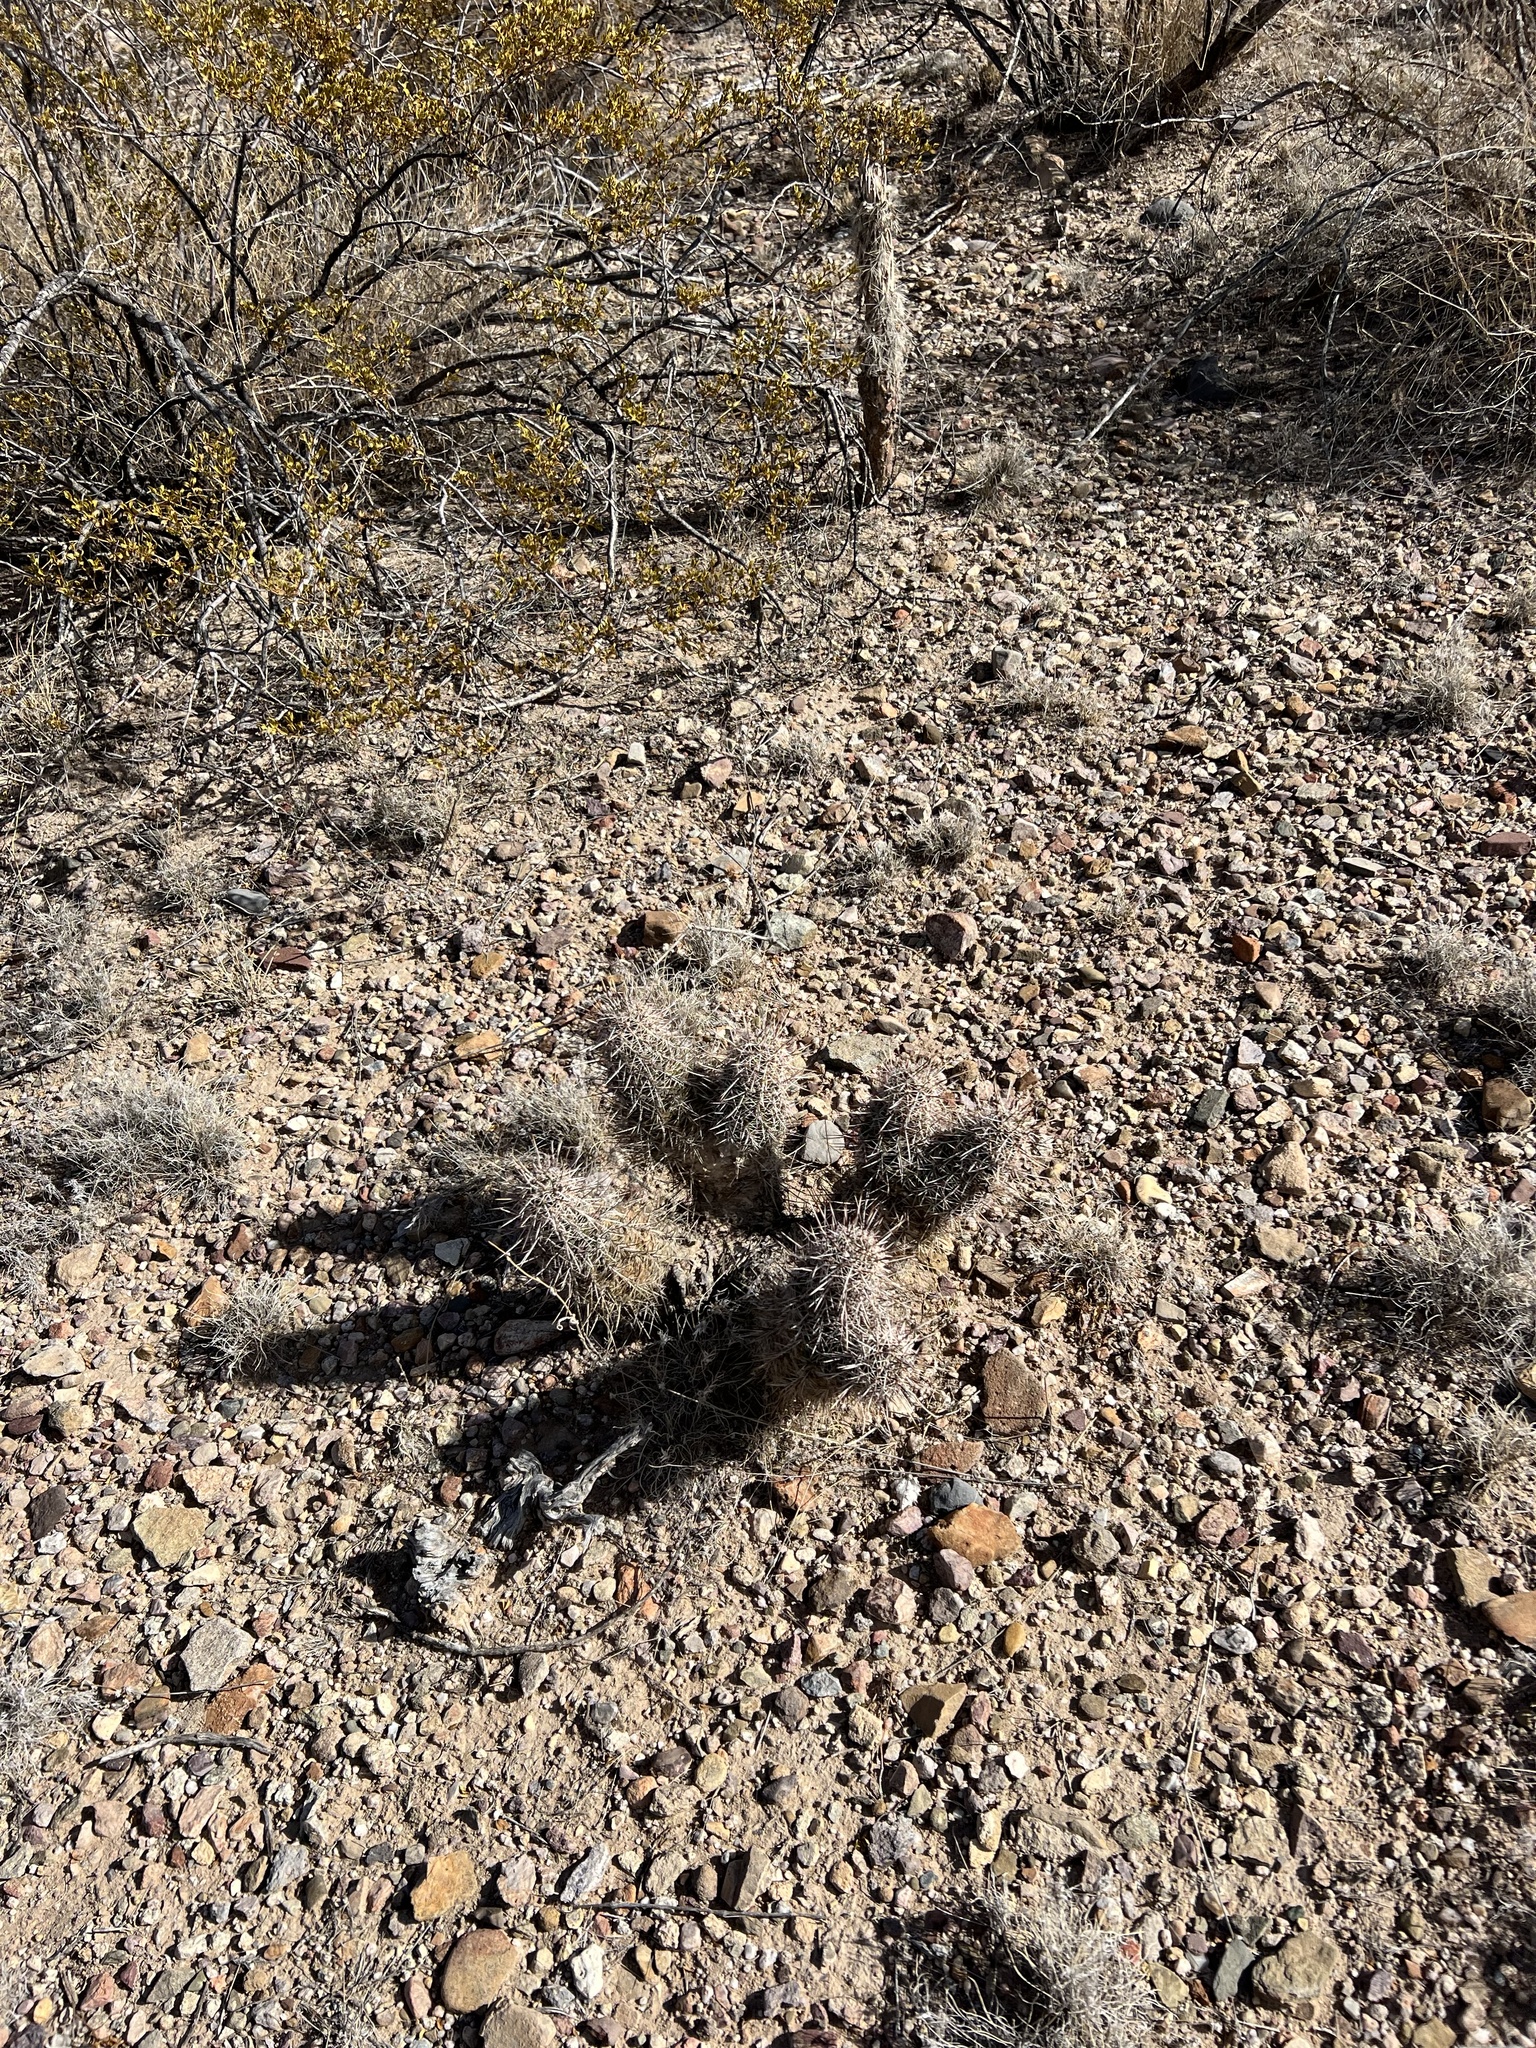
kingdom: Plantae
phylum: Tracheophyta
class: Magnoliopsida
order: Caryophyllales
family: Cactaceae
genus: Echinocereus
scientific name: Echinocereus fasciculatus
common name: Bundle hedgehog
